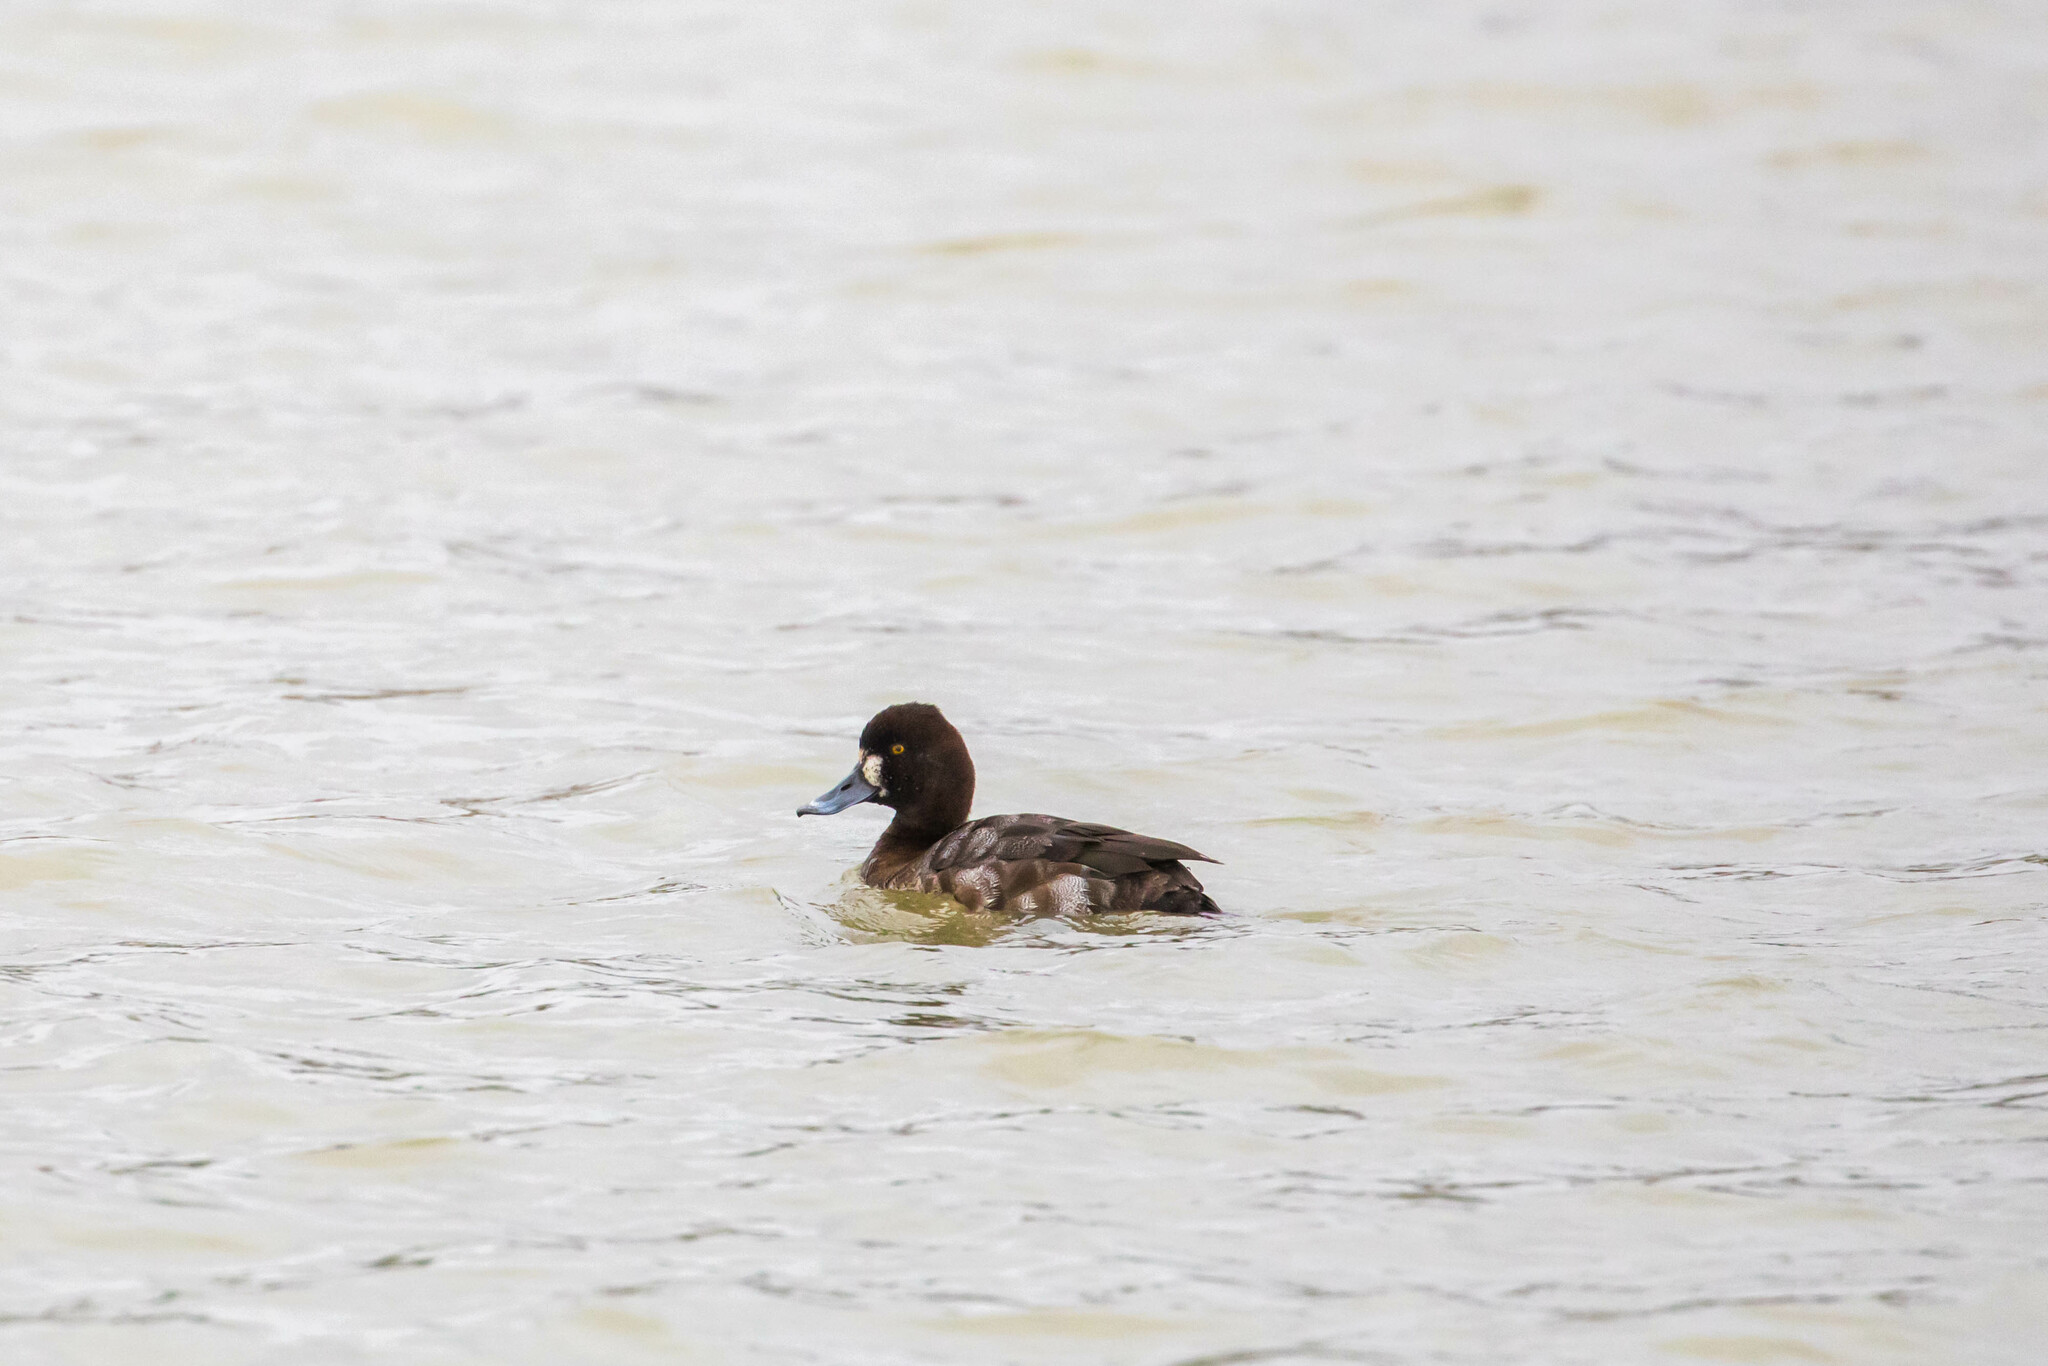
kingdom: Animalia
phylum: Chordata
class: Aves
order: Anseriformes
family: Anatidae
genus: Aythya
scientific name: Aythya affinis
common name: Lesser scaup
